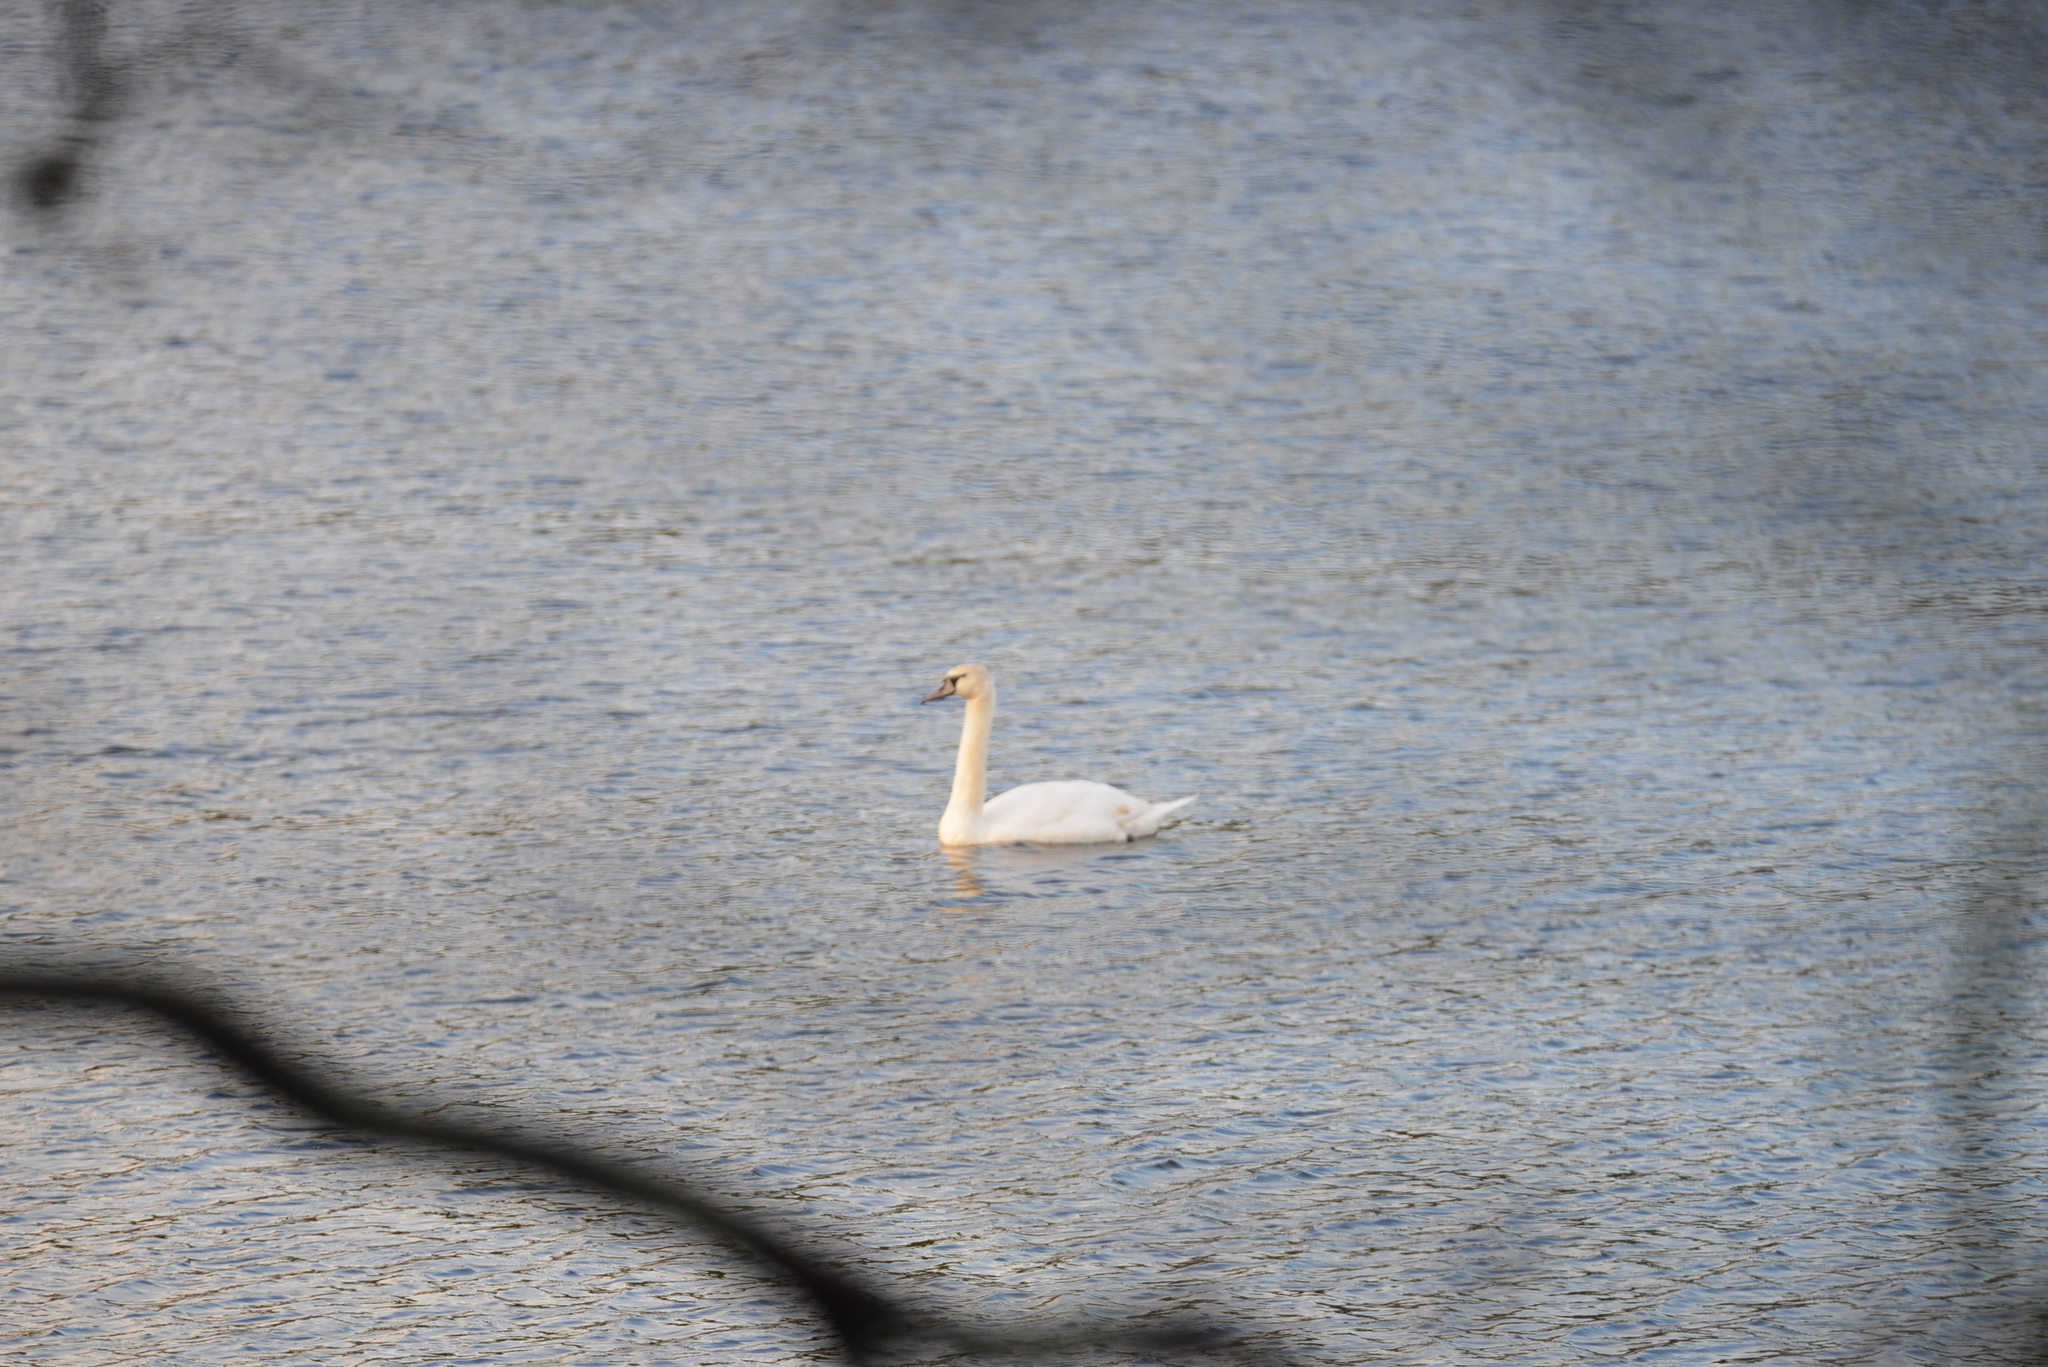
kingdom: Animalia
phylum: Chordata
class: Aves
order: Anseriformes
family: Anatidae
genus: Cygnus
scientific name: Cygnus olor
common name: Mute swan
